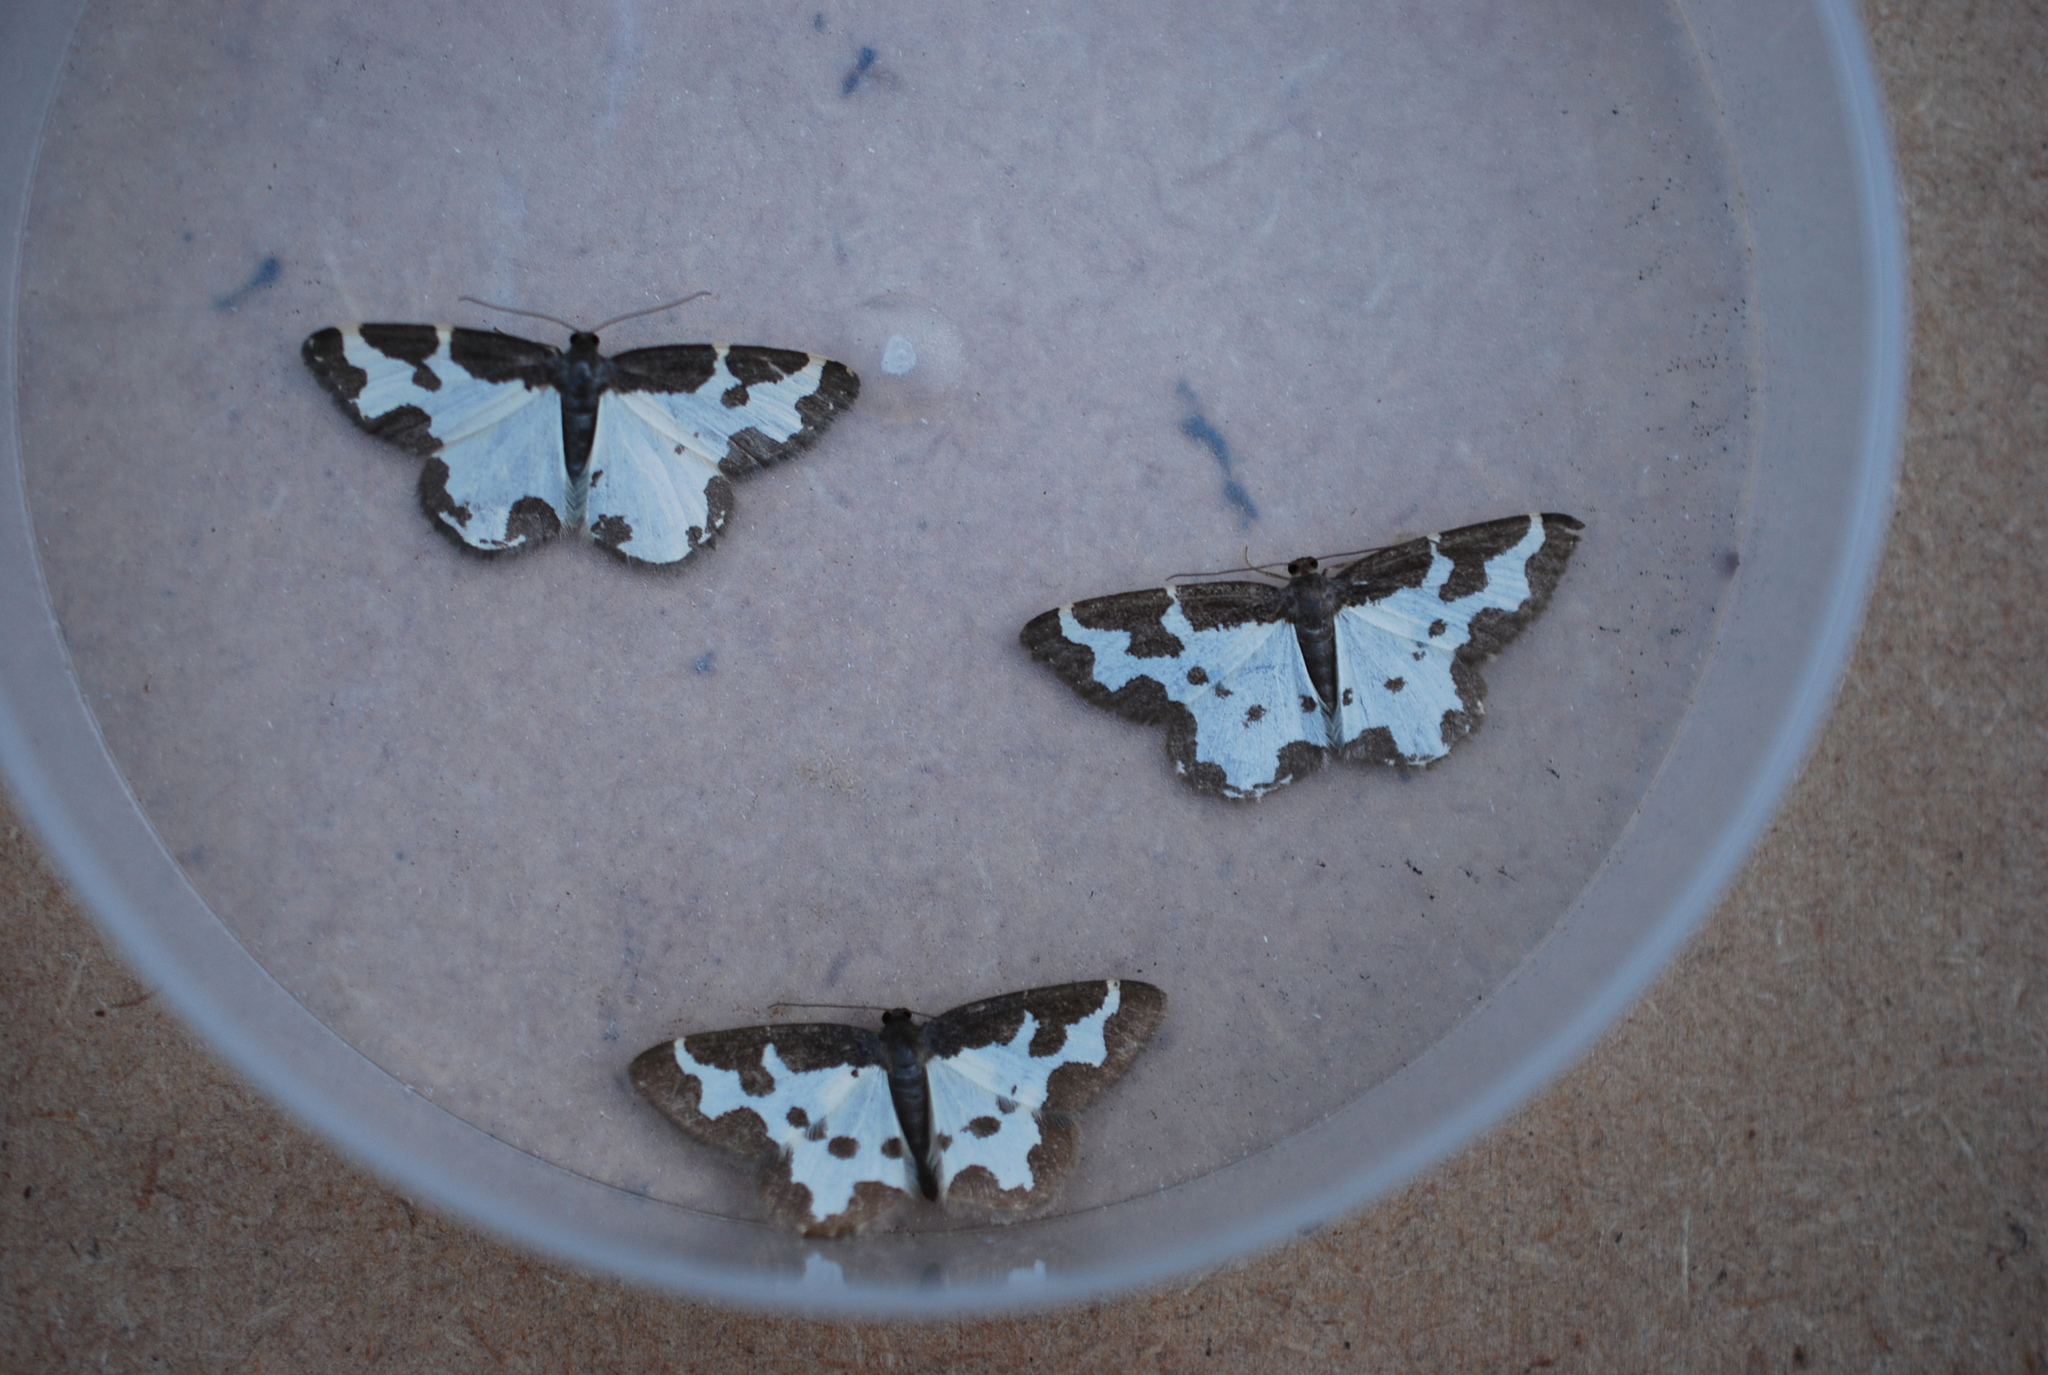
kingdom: Animalia
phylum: Arthropoda
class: Insecta
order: Lepidoptera
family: Geometridae
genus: Lomaspilis
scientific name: Lomaspilis marginata
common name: Clouded border
